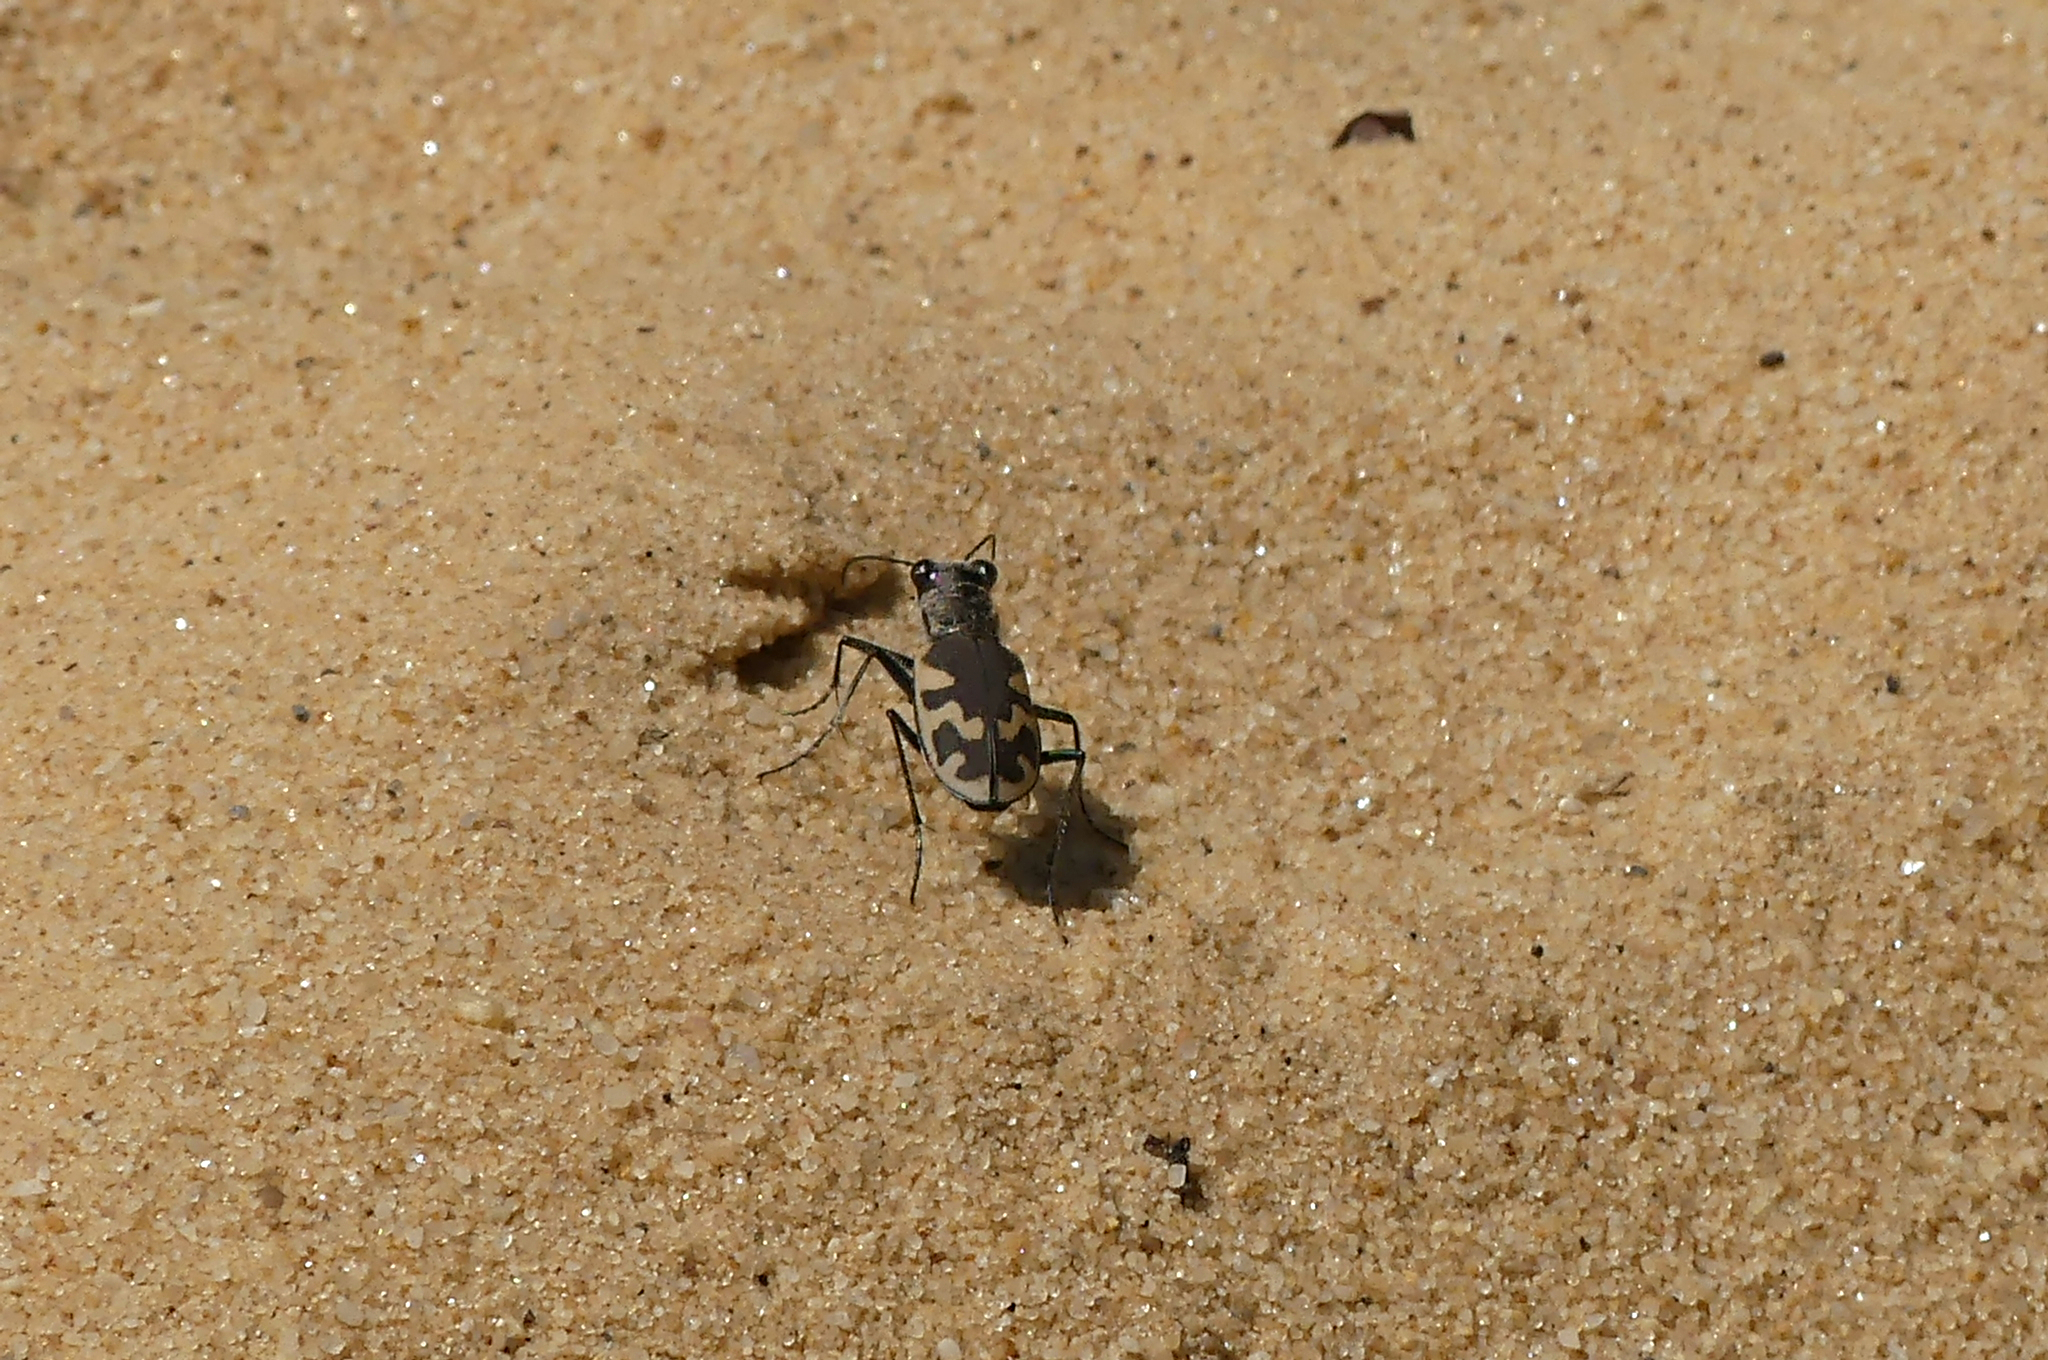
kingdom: Animalia
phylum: Arthropoda
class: Insecta
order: Coleoptera
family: Carabidae
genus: Cicindela
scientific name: Cicindela formosa
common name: Big sand tiger beetle
